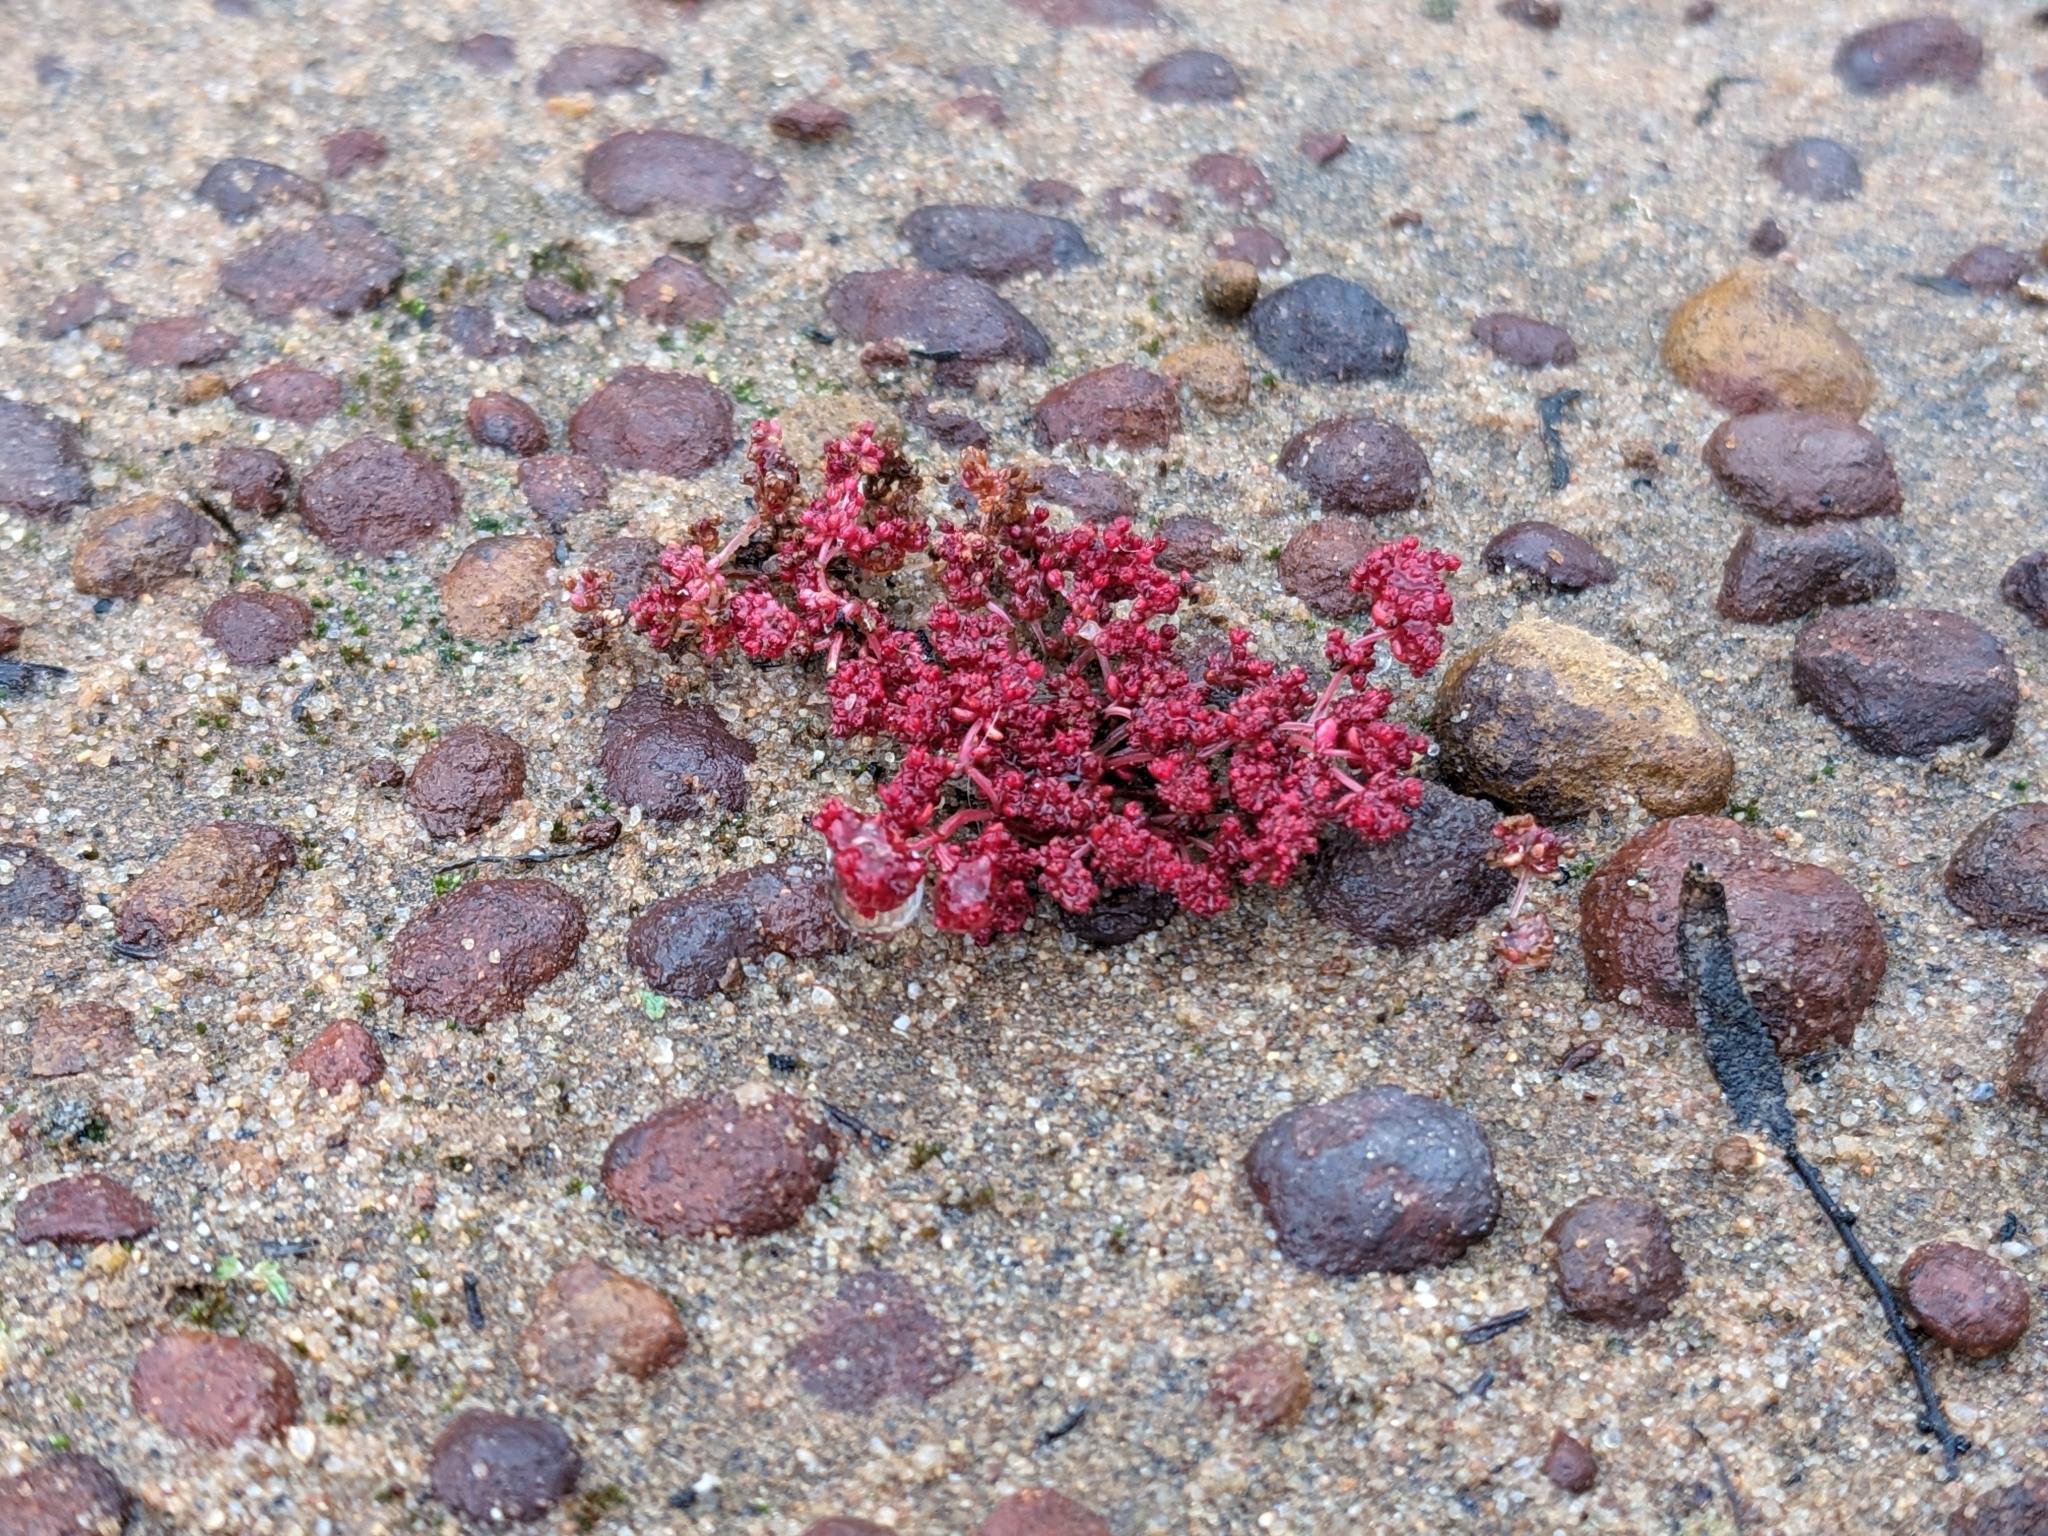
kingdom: Plantae
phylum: Tracheophyta
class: Magnoliopsida
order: Saxifragales
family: Crassulaceae
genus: Crassula
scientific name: Crassula connata
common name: Erect pygmyweed
